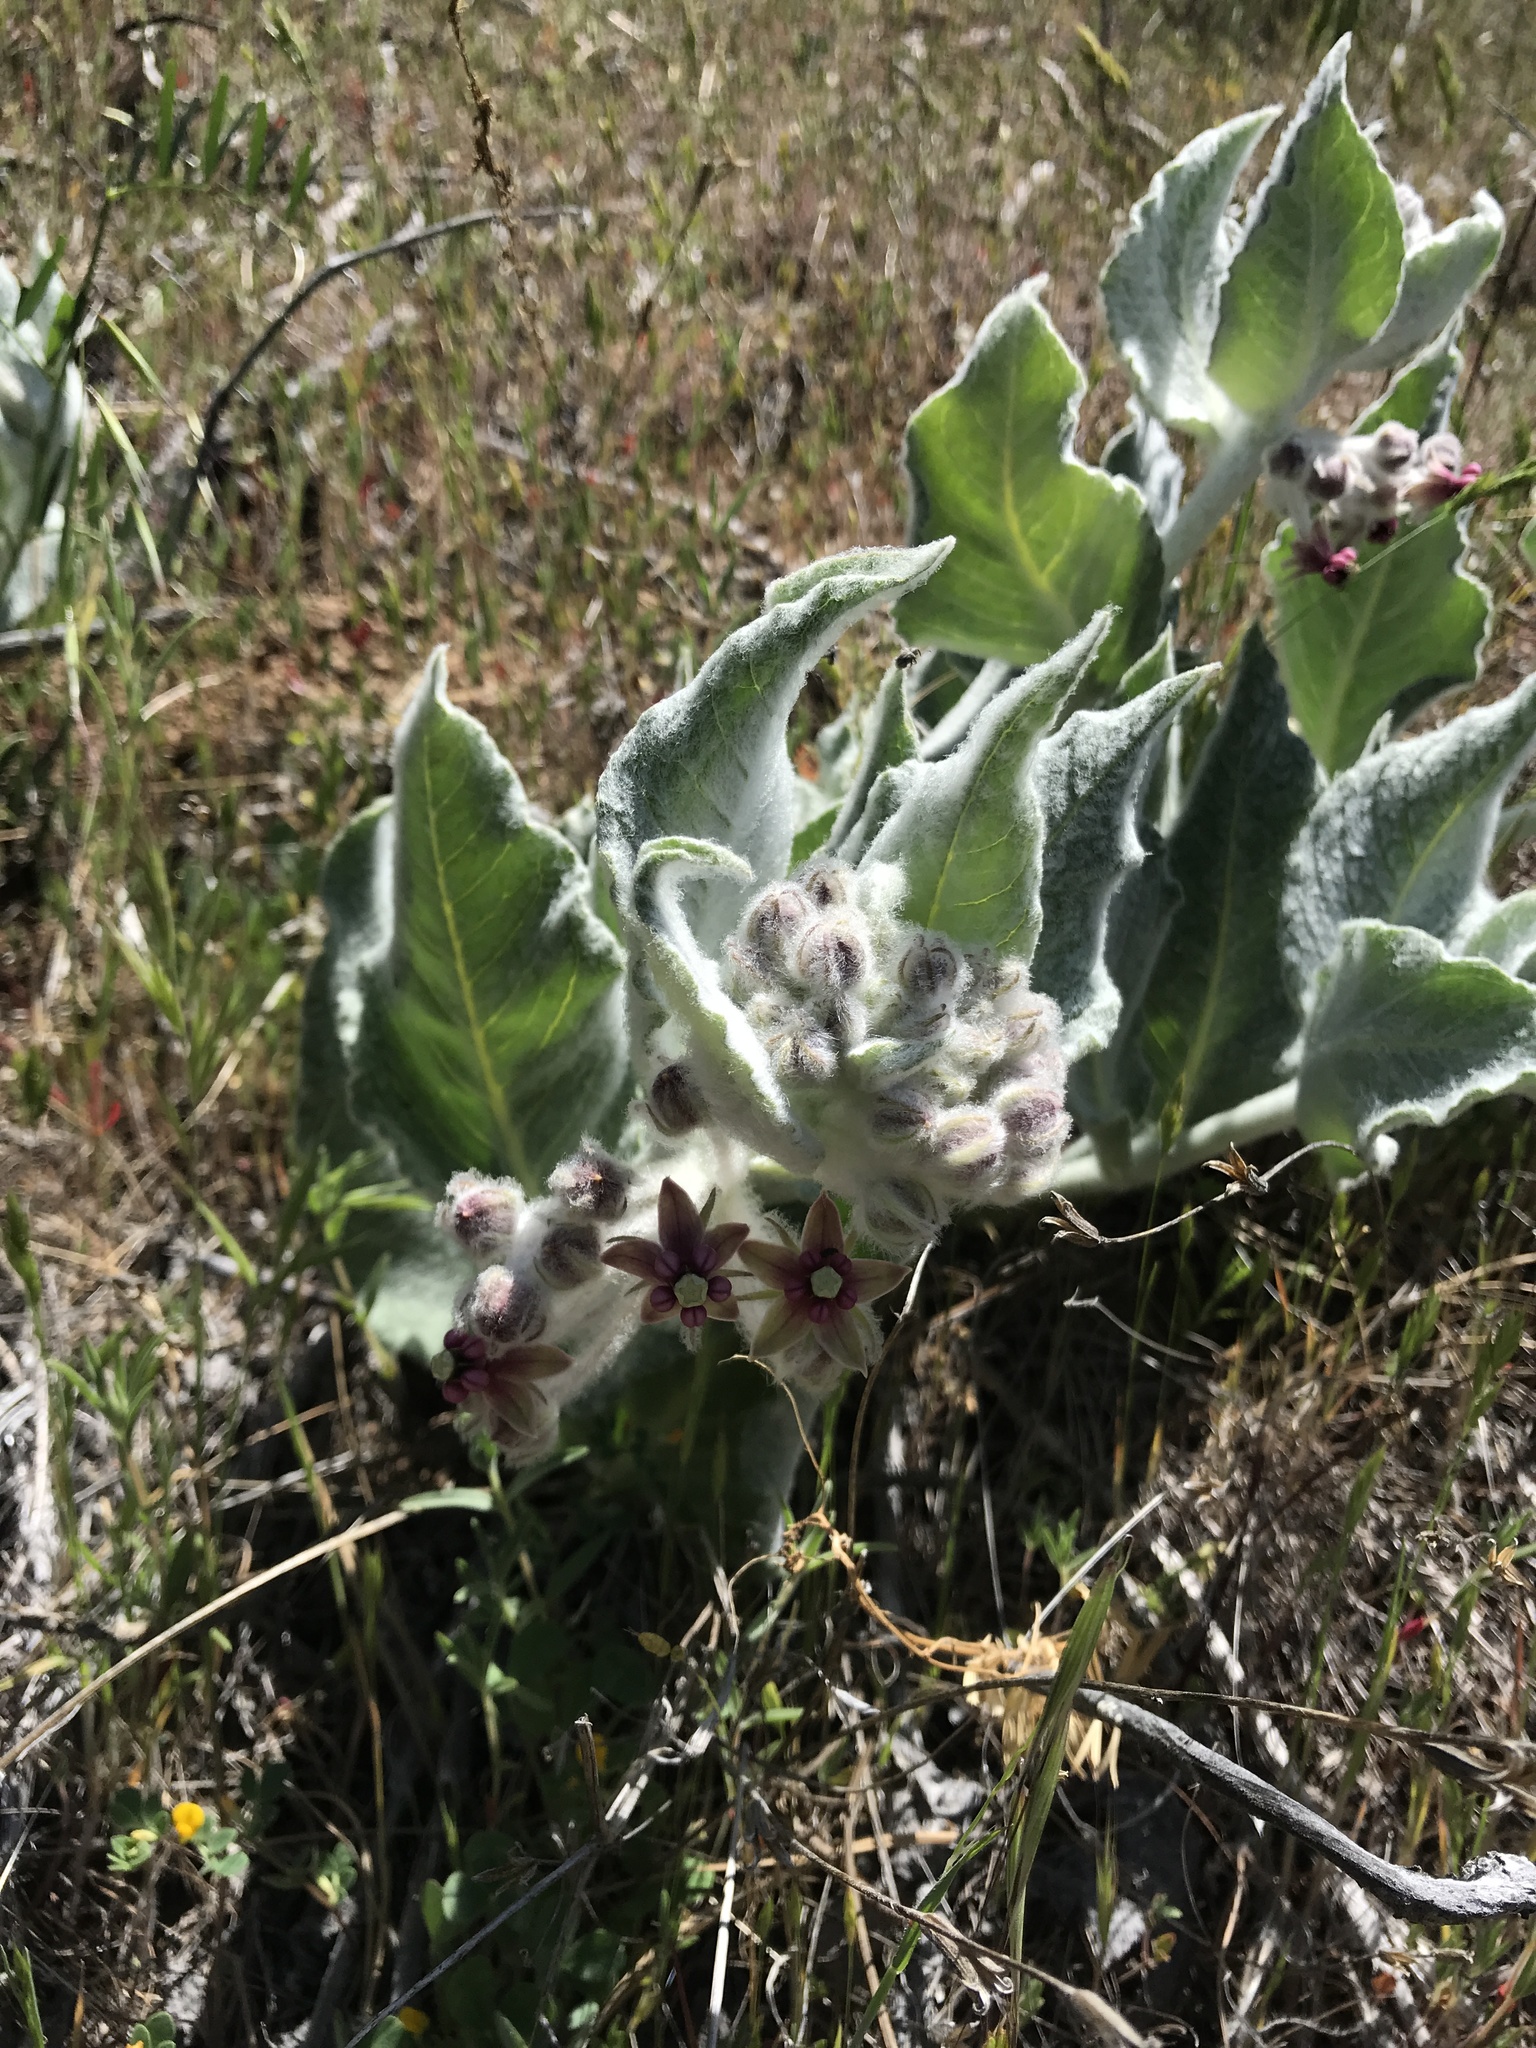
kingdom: Plantae
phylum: Tracheophyta
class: Magnoliopsida
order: Gentianales
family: Apocynaceae
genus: Asclepias
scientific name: Asclepias californica
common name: California milkweed
